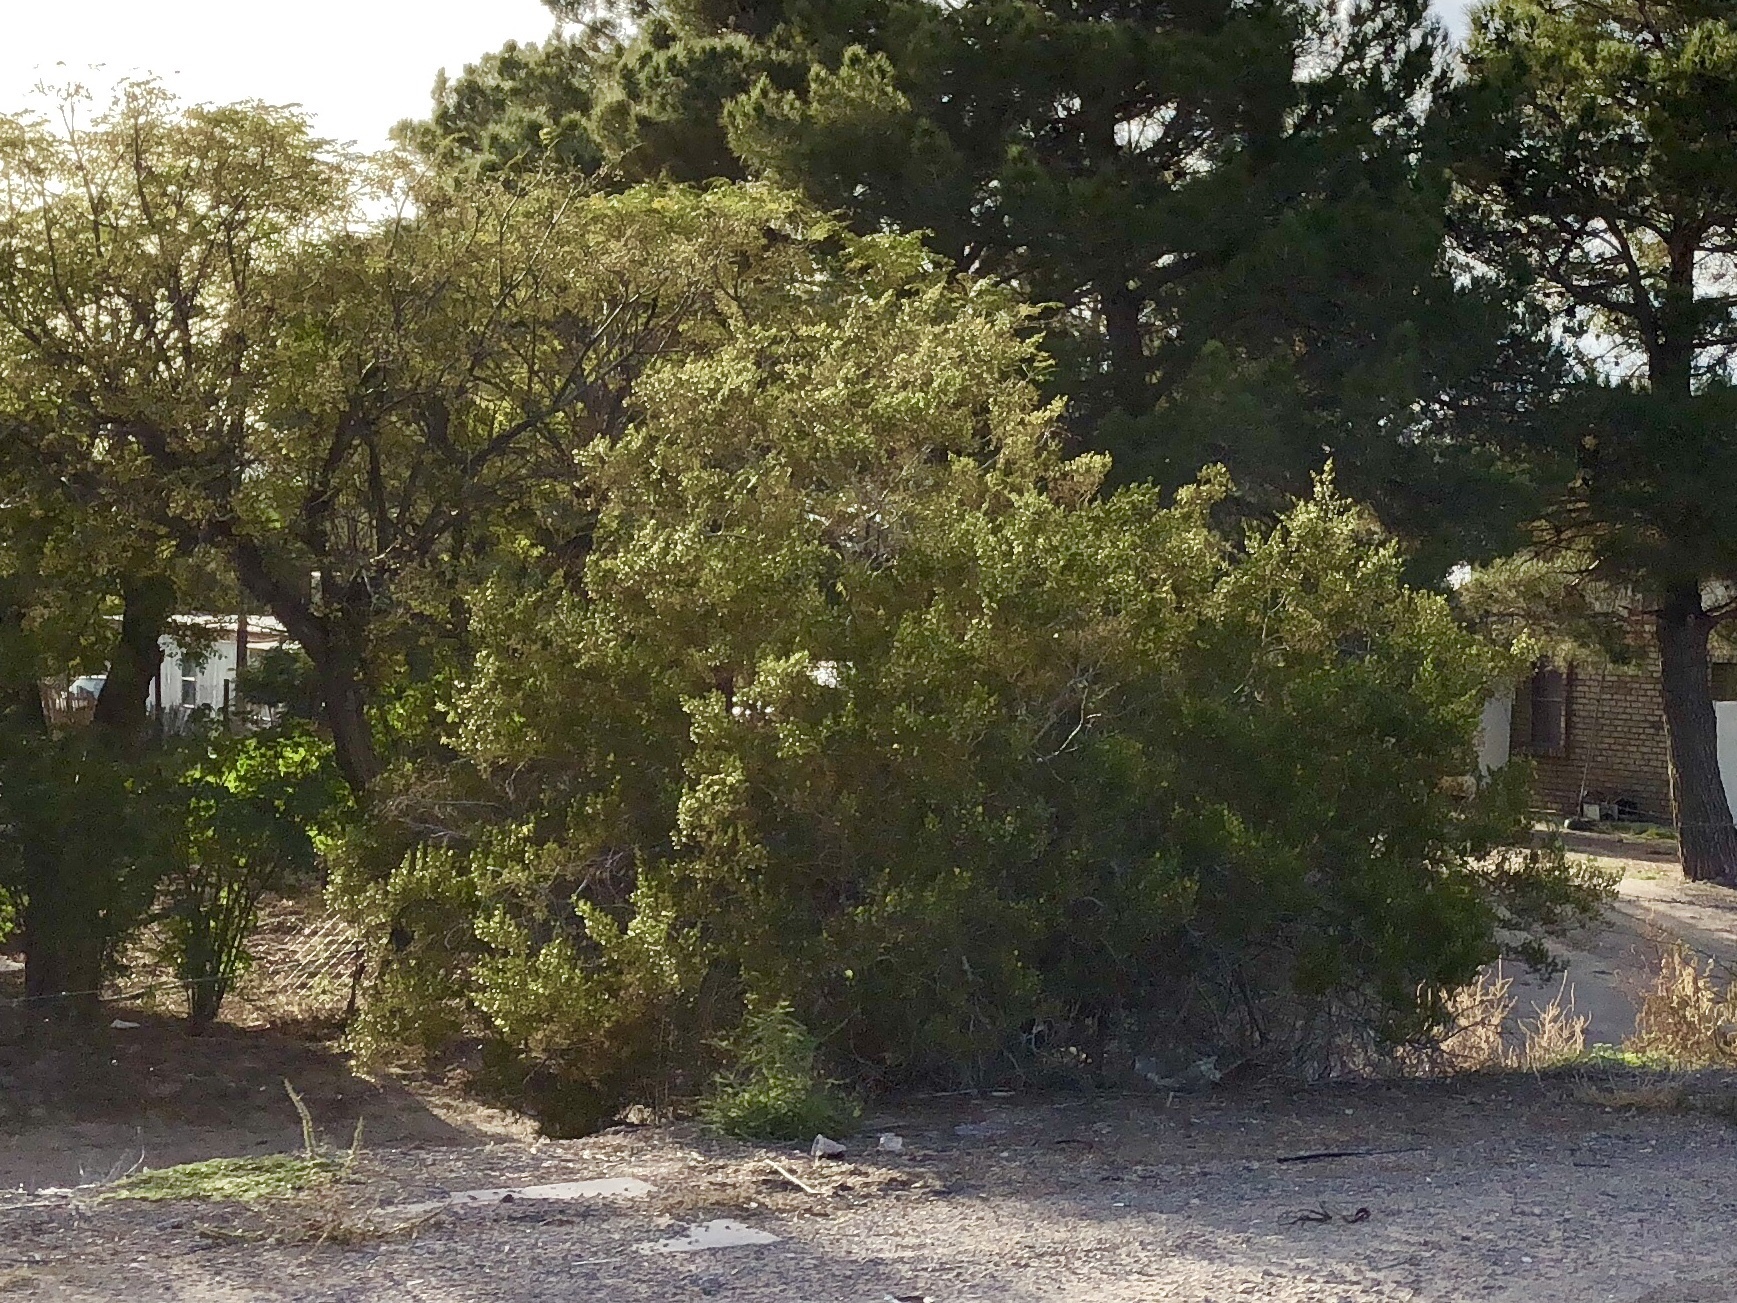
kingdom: Plantae
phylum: Tracheophyta
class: Magnoliopsida
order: Zygophyllales
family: Zygophyllaceae
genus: Larrea
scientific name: Larrea tridentata
